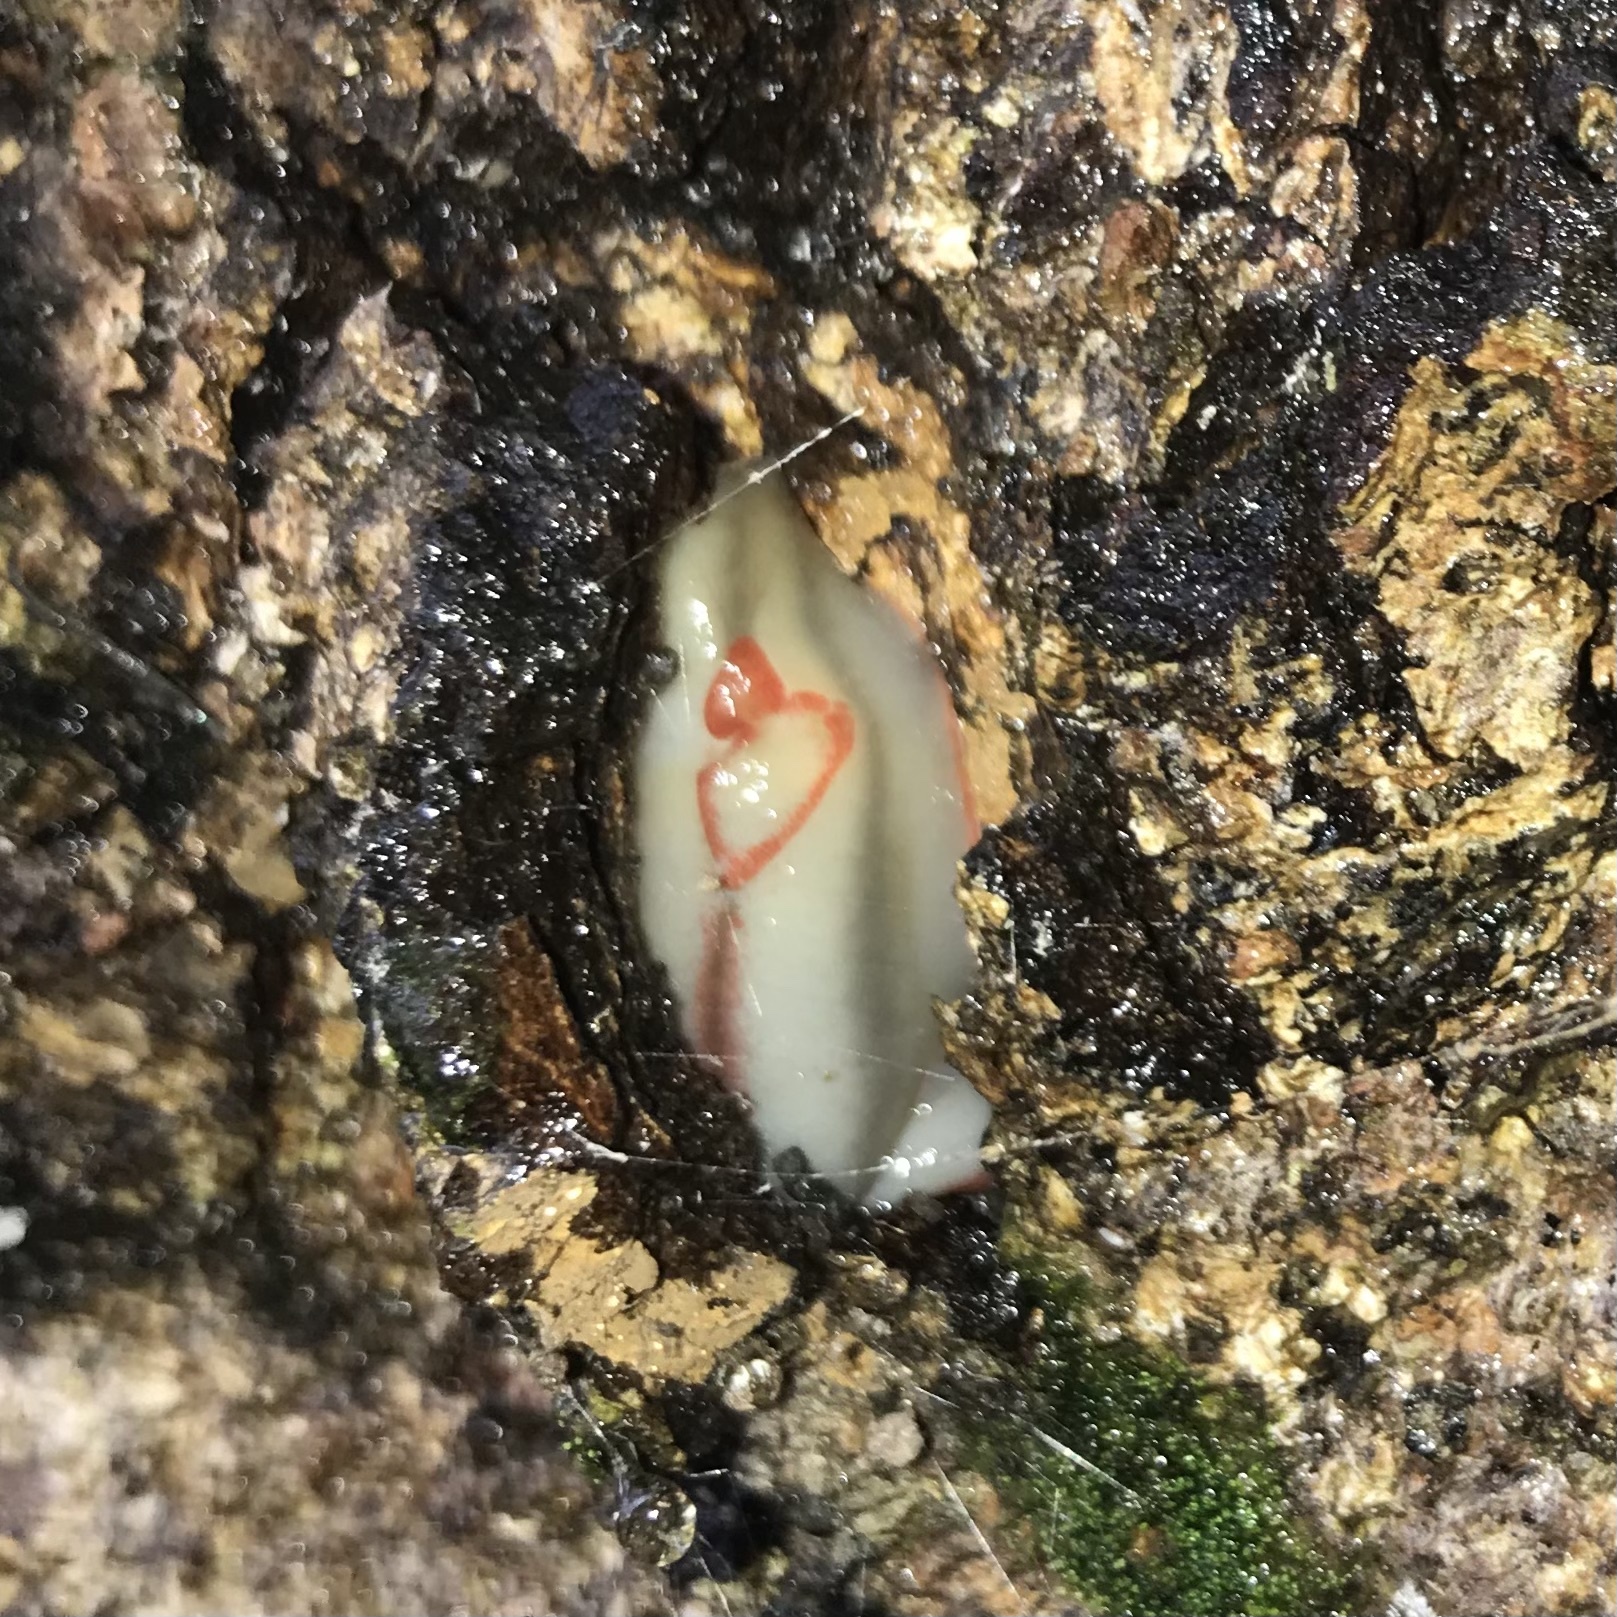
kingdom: Animalia
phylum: Mollusca
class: Gastropoda
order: Stylommatophora
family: Athoracophoridae
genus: Triboniophorus
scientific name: Triboniophorus graeffei
